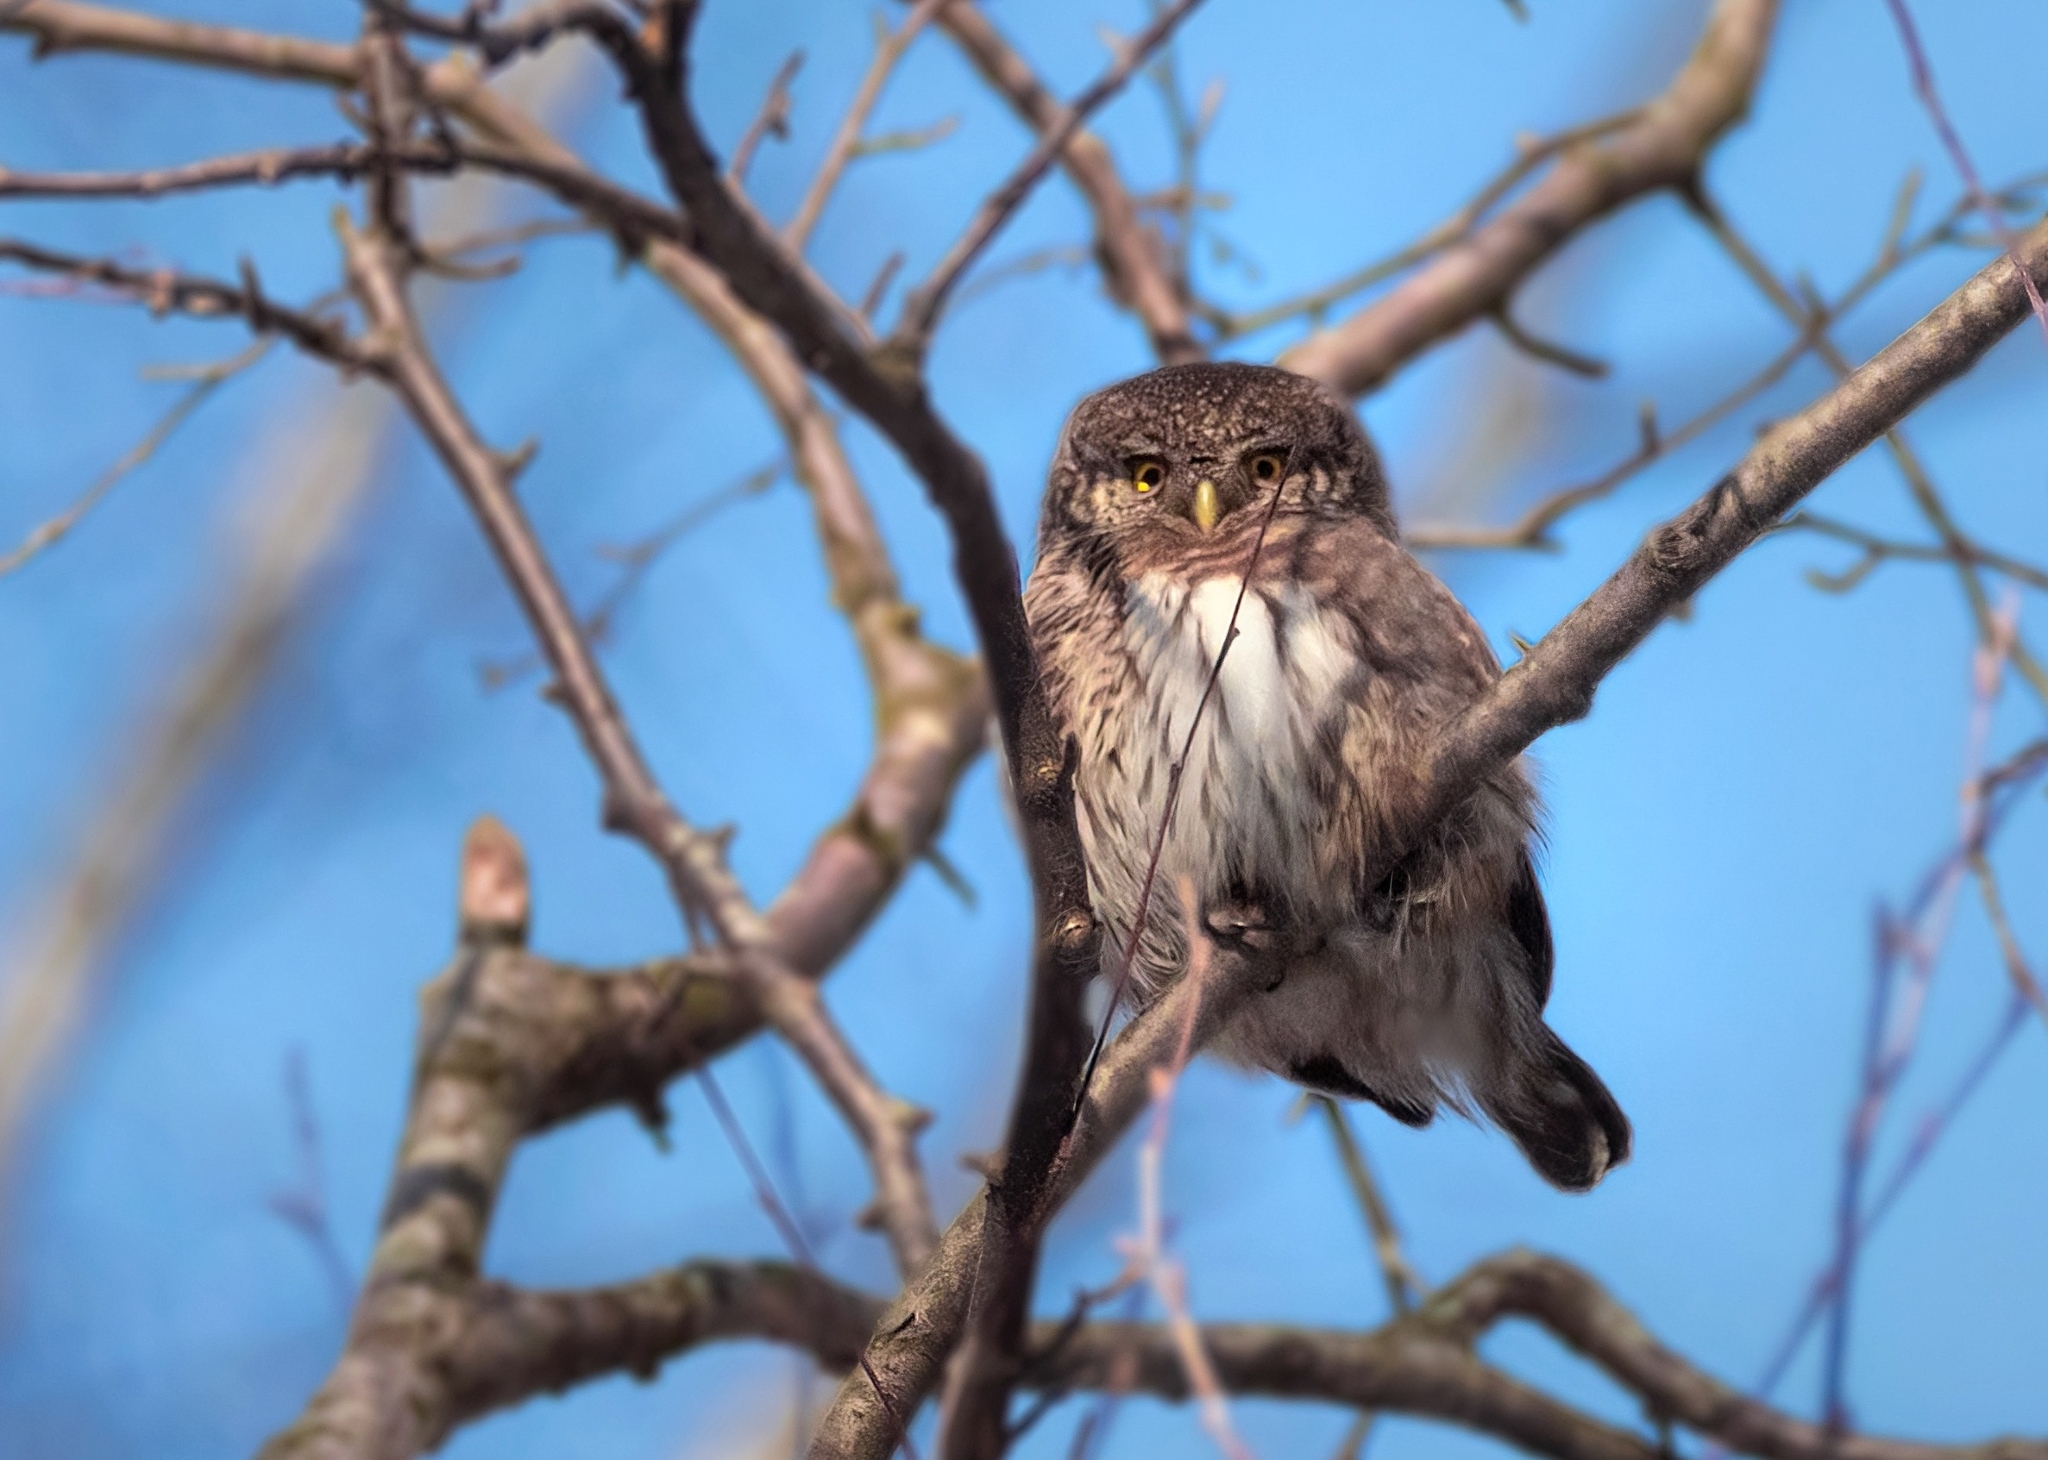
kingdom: Animalia
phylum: Chordata
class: Aves
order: Strigiformes
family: Strigidae
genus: Glaucidium
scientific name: Glaucidium passerinum
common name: Eurasian pygmy owl
